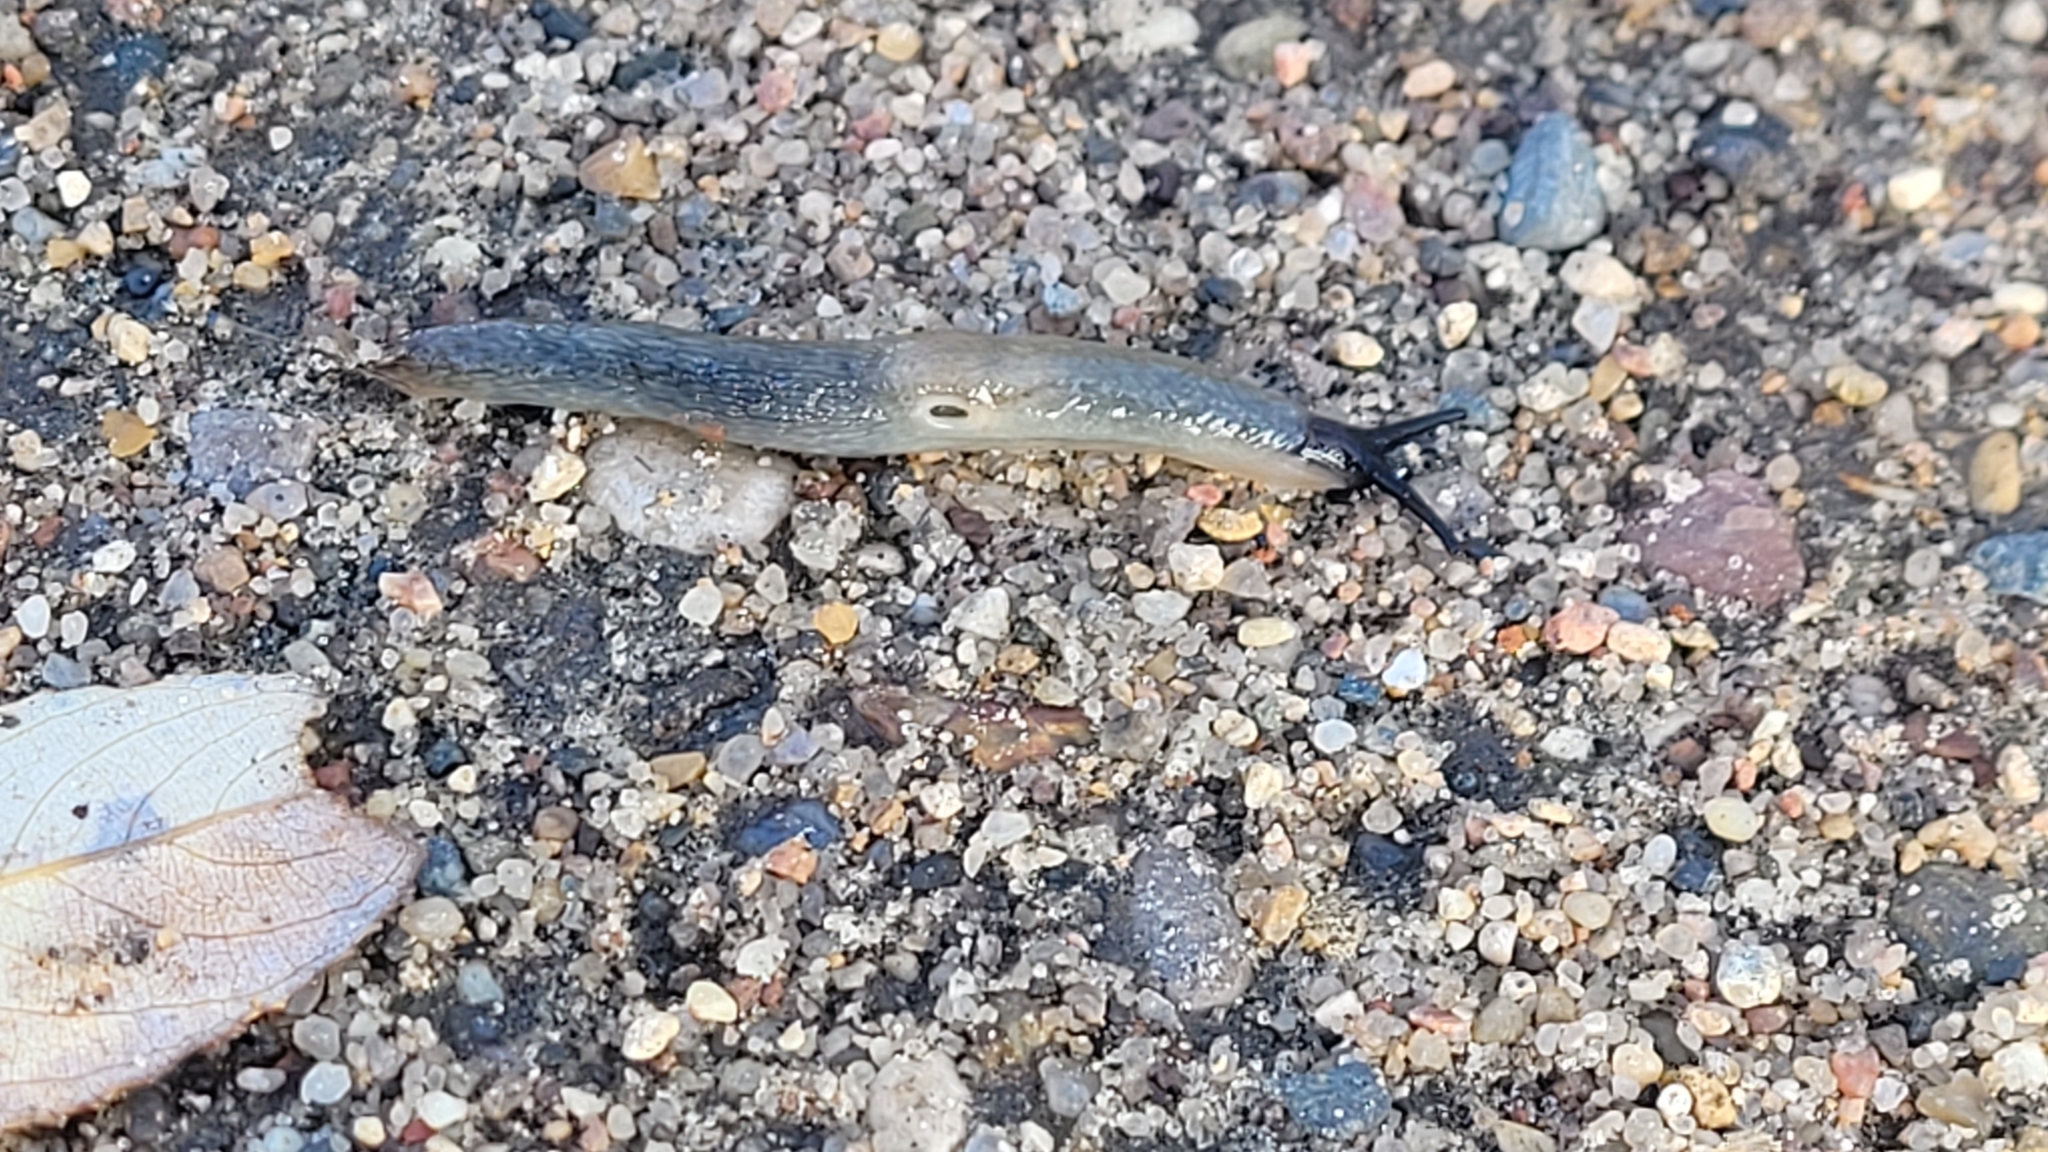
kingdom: Animalia
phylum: Mollusca
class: Gastropoda
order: Stylommatophora
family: Agriolimacidae
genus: Krynickillus
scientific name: Krynickillus melanocephalus
